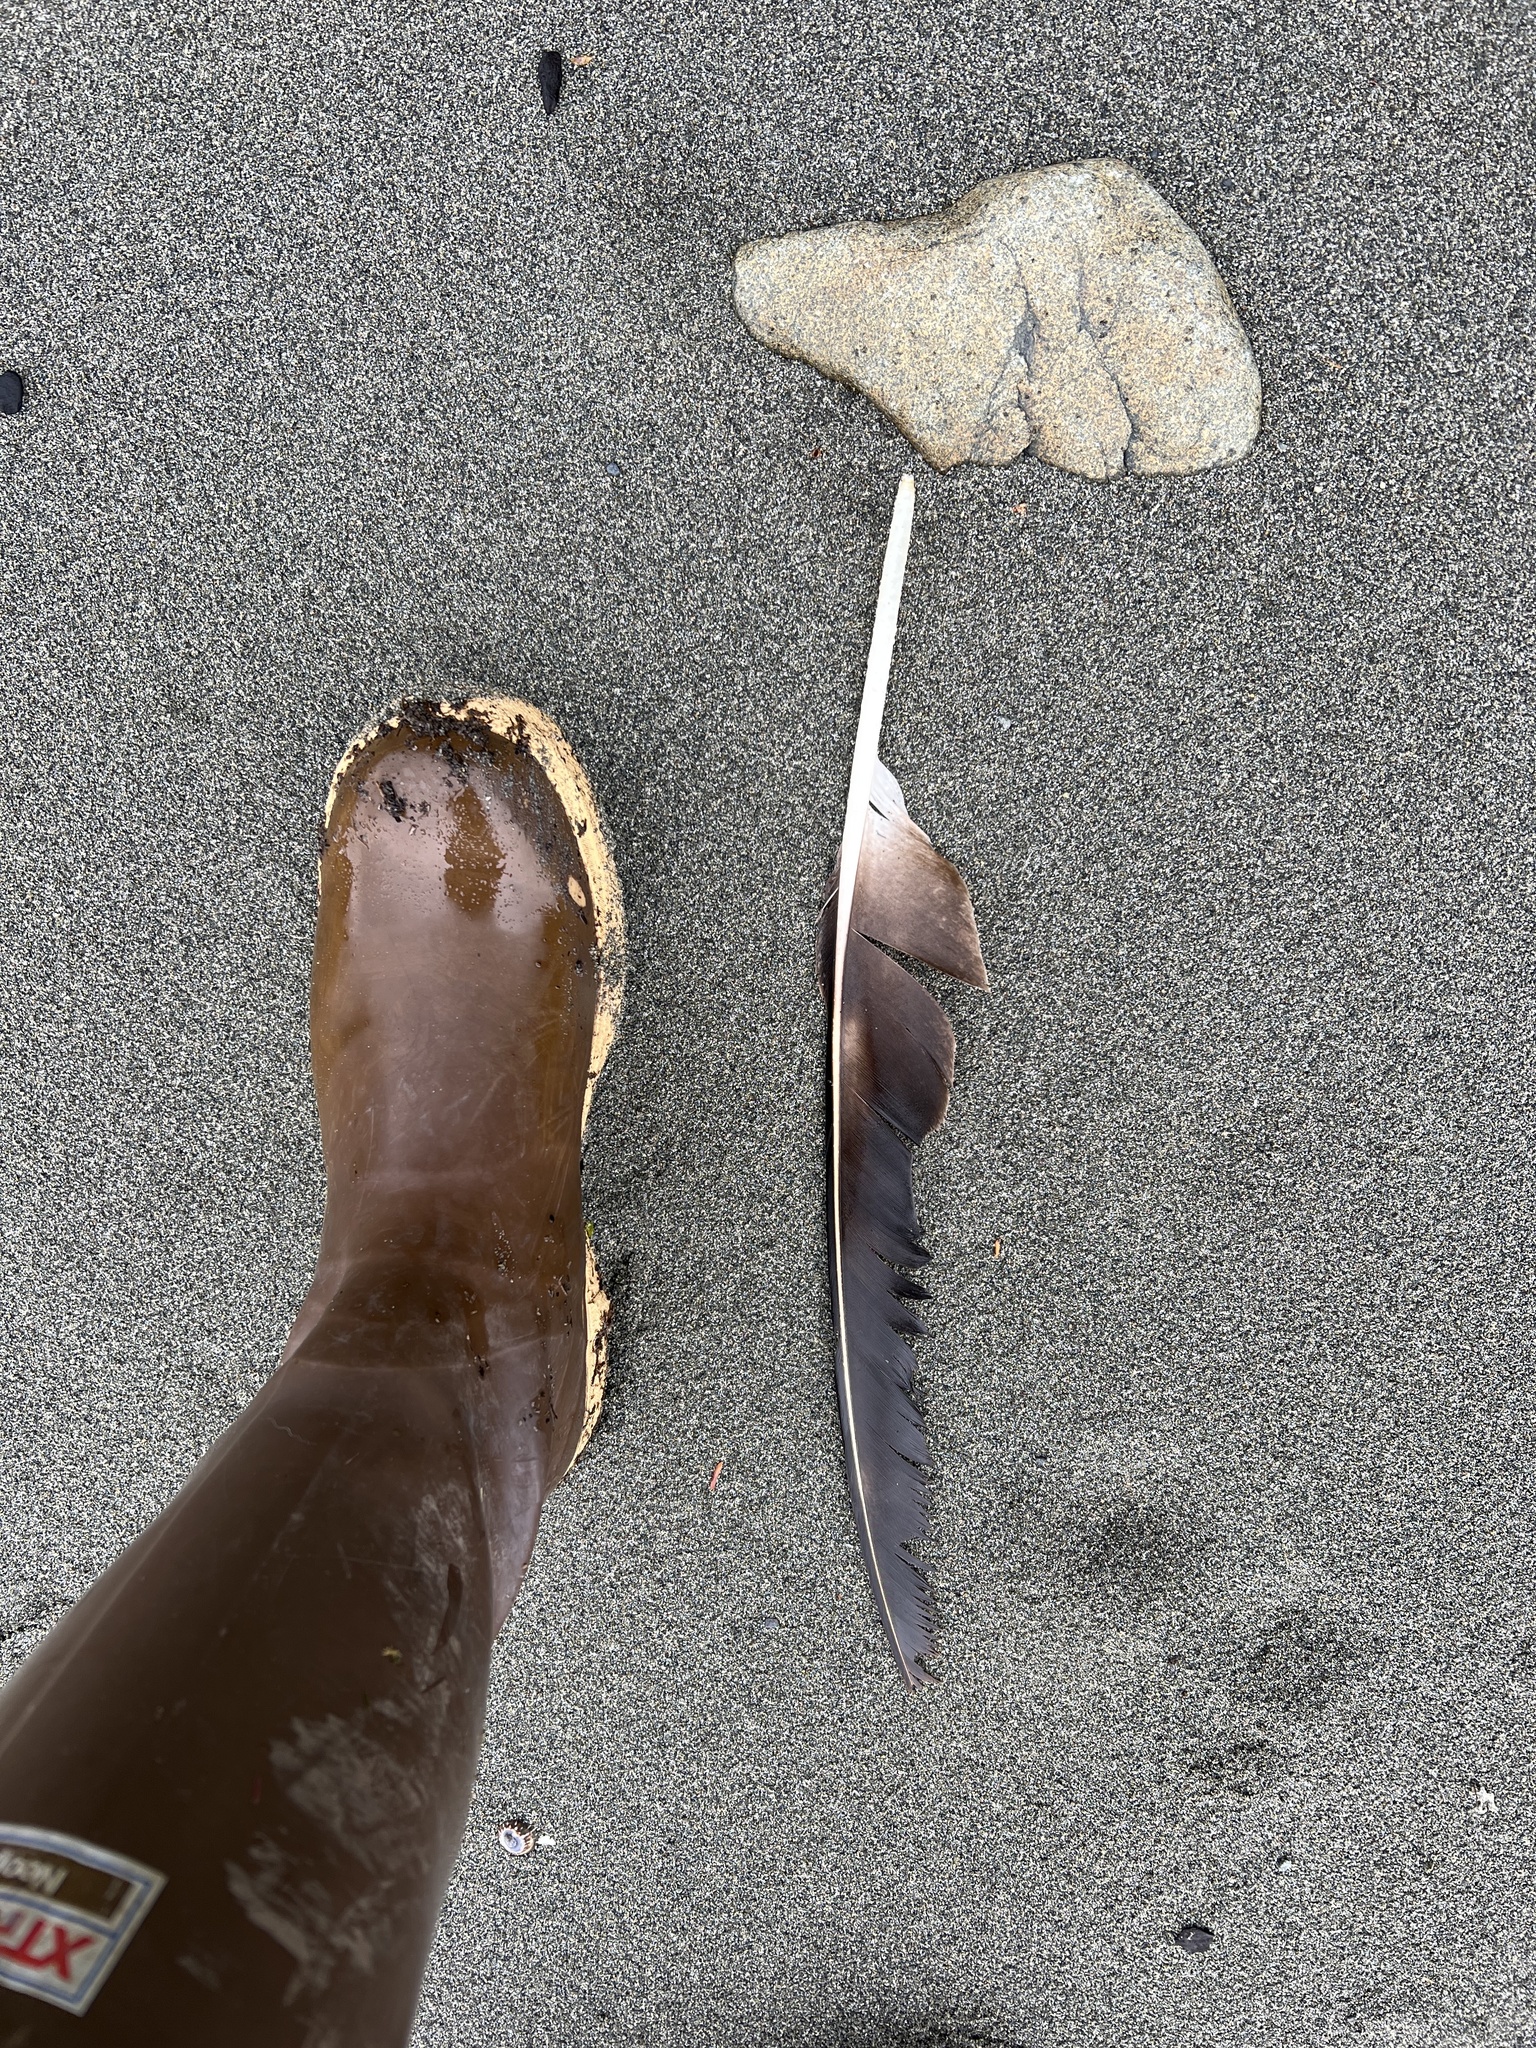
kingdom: Animalia
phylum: Chordata
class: Aves
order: Accipitriformes
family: Accipitridae
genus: Haliaeetus
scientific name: Haliaeetus leucocephalus
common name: Bald eagle
